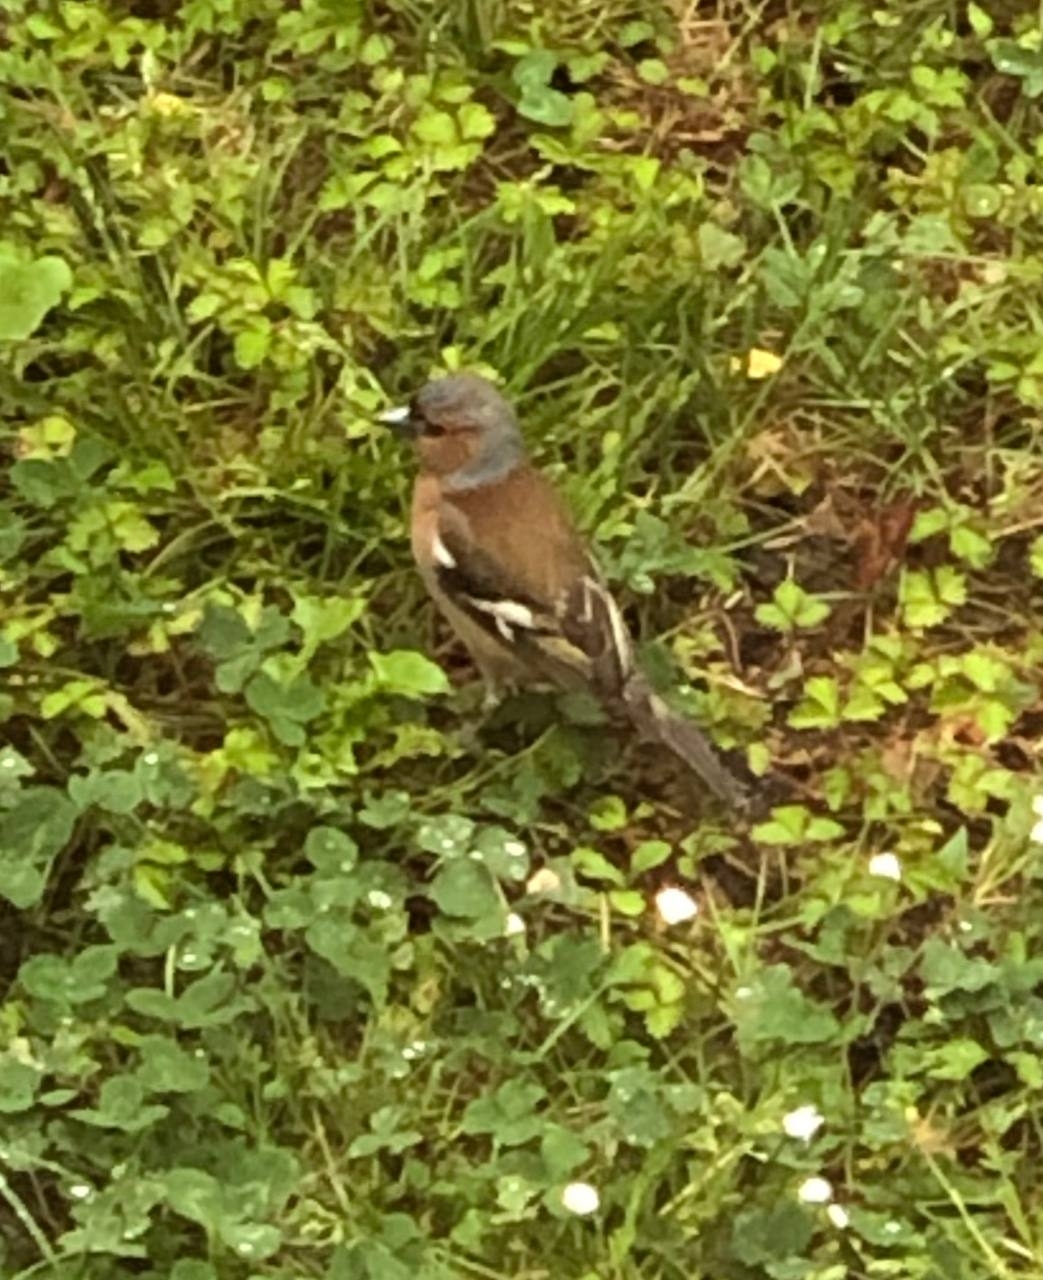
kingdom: Animalia
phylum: Chordata
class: Aves
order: Passeriformes
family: Fringillidae
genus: Fringilla
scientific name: Fringilla coelebs
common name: Common chaffinch
